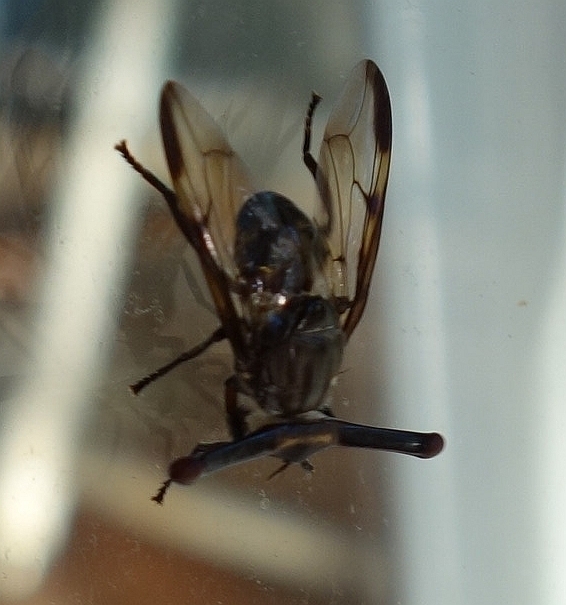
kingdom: Animalia
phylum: Arthropoda
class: Insecta
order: Diptera
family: Platystomatidae
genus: Achias
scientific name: Achias australis
